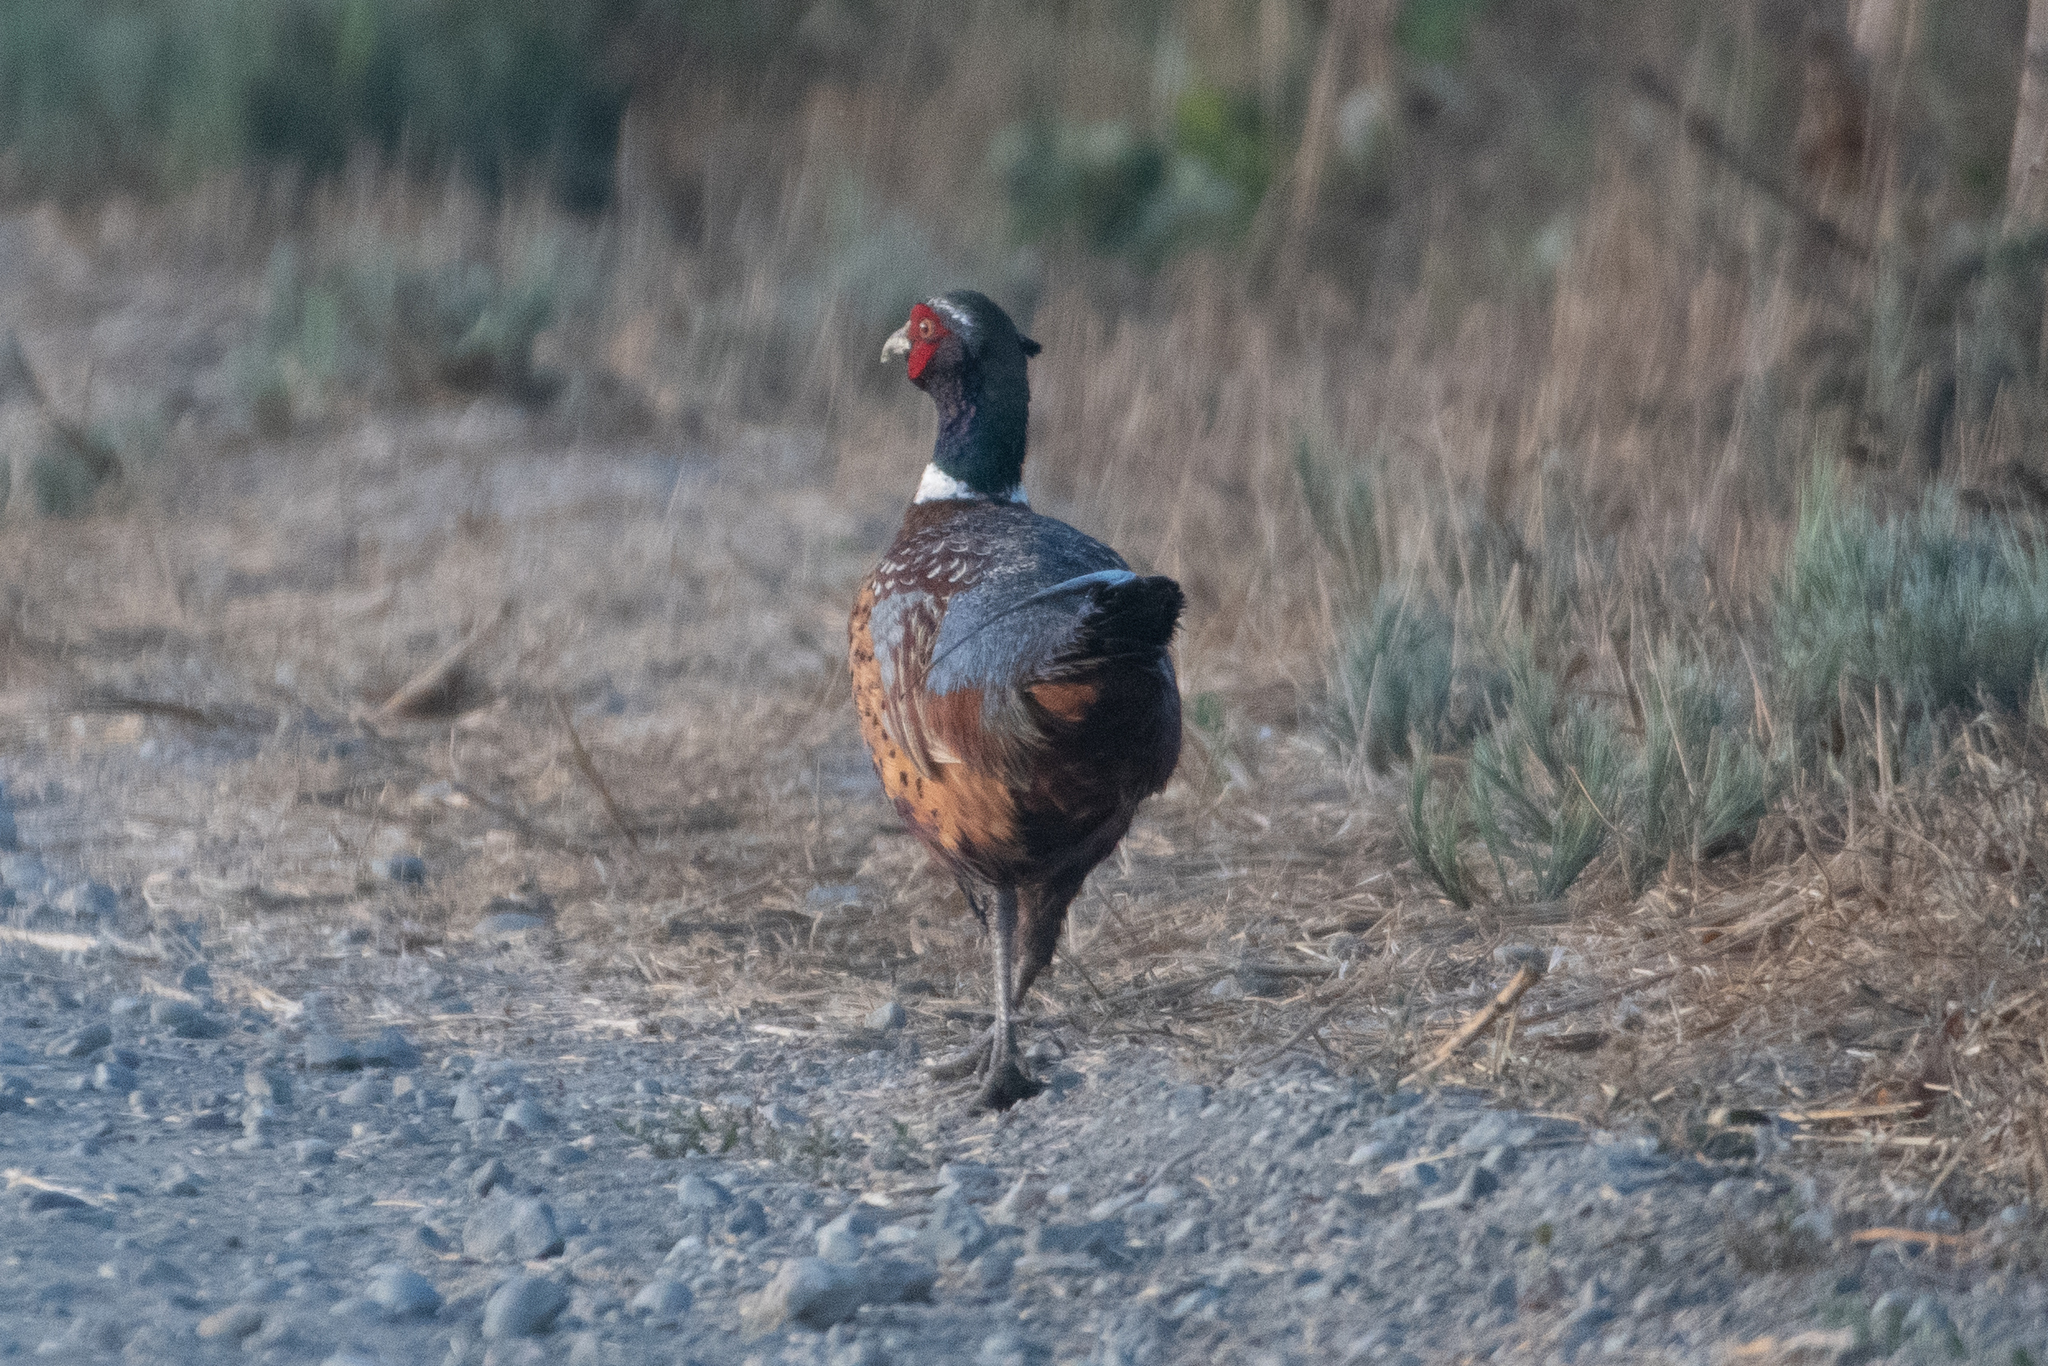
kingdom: Animalia
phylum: Chordata
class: Aves
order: Galliformes
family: Phasianidae
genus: Phasianus
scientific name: Phasianus colchicus
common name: Common pheasant
